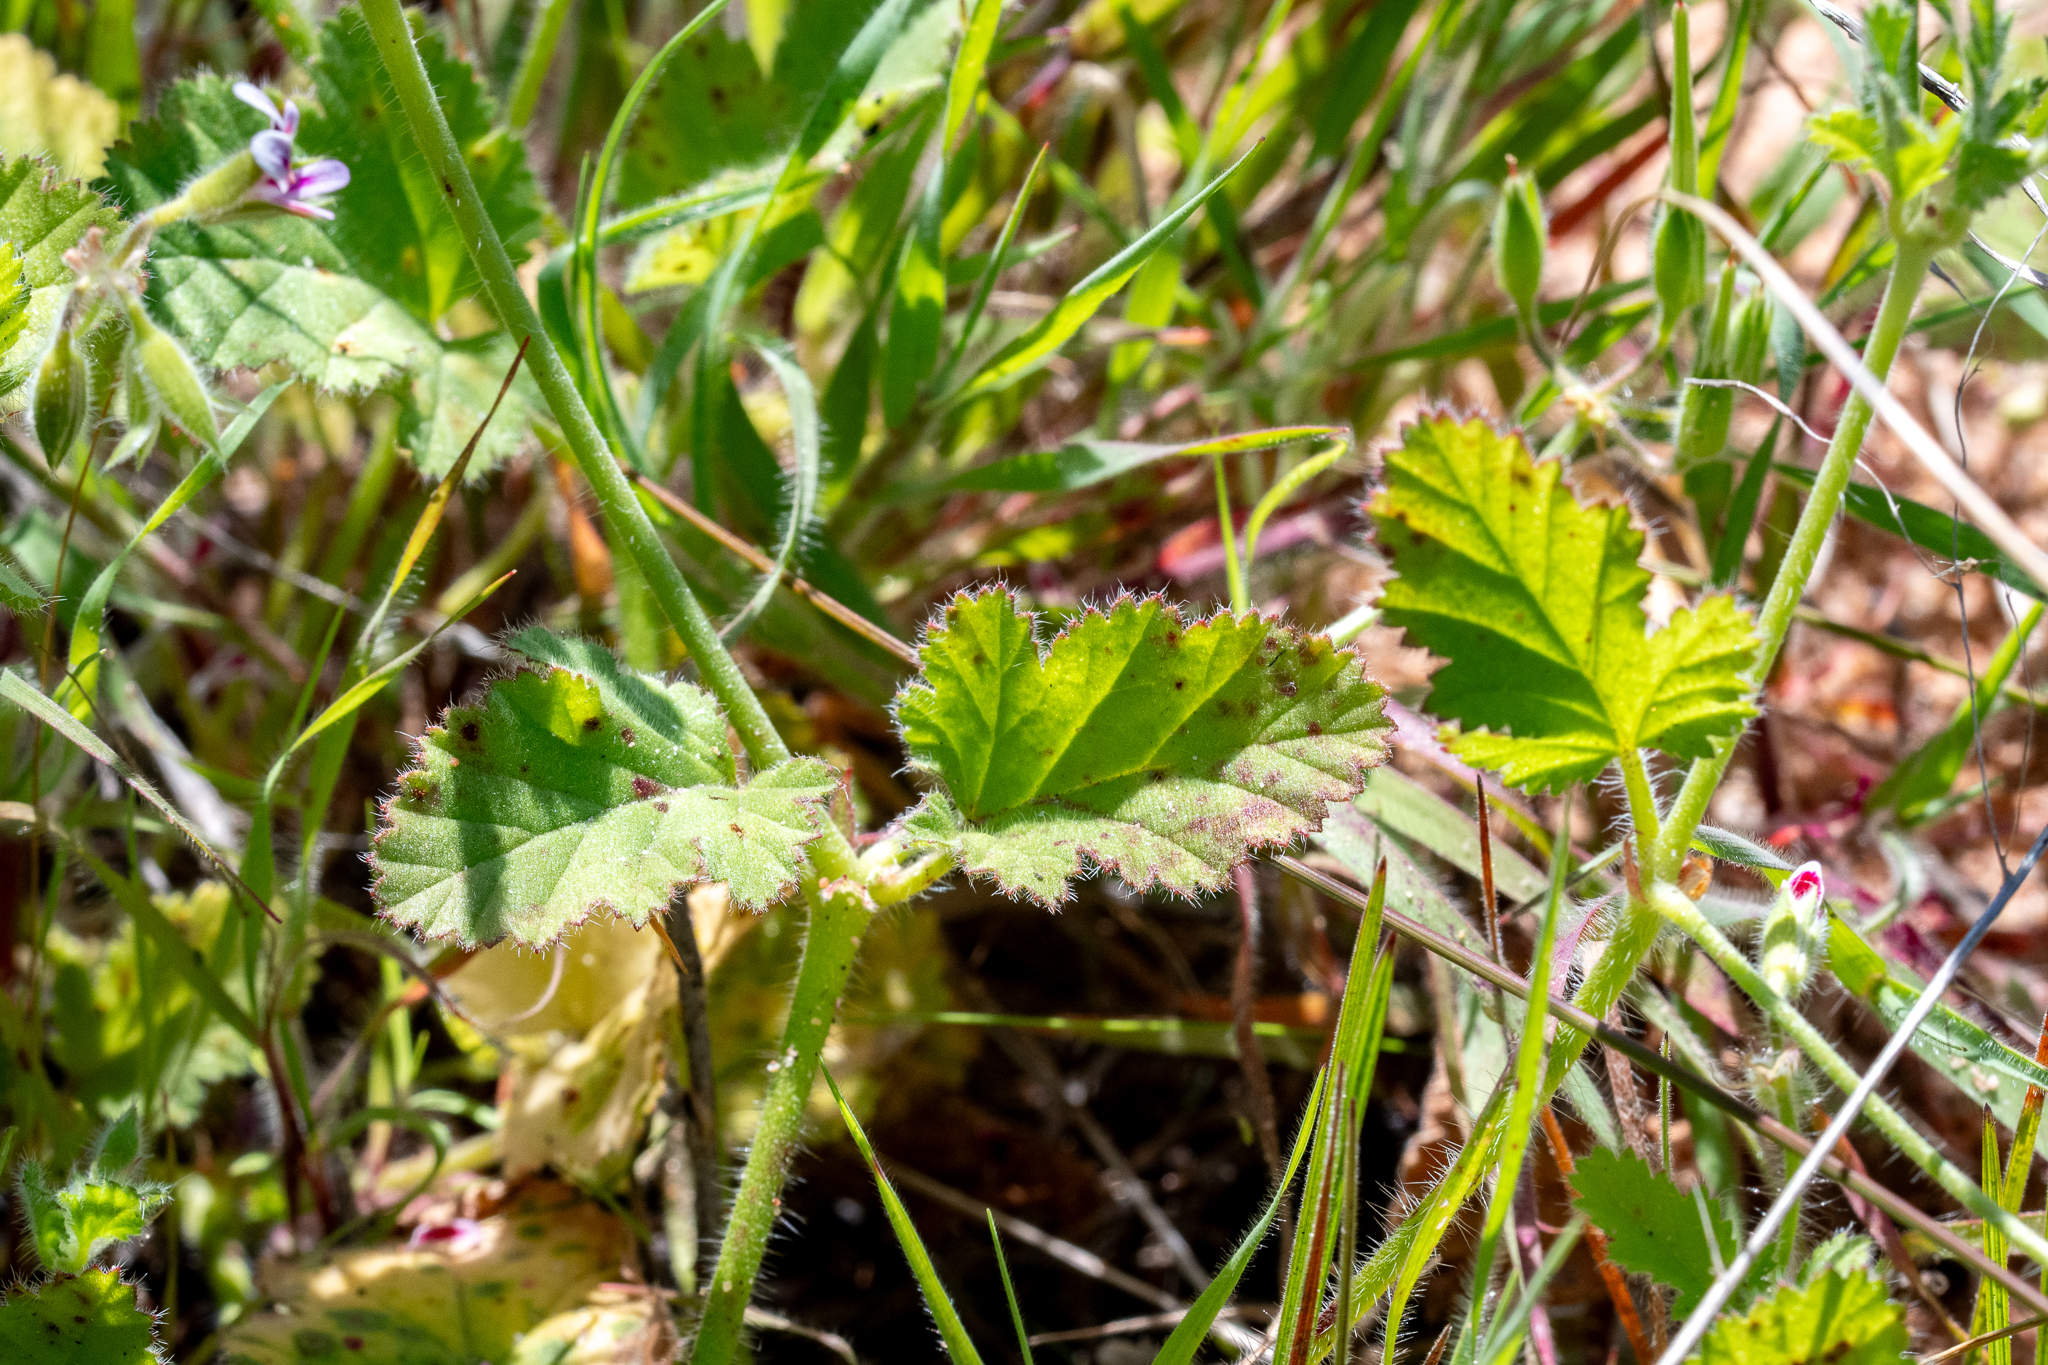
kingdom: Plantae
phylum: Tracheophyta
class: Magnoliopsida
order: Geraniales
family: Geraniaceae
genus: Pelargonium
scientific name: Pelargonium althaeoides
